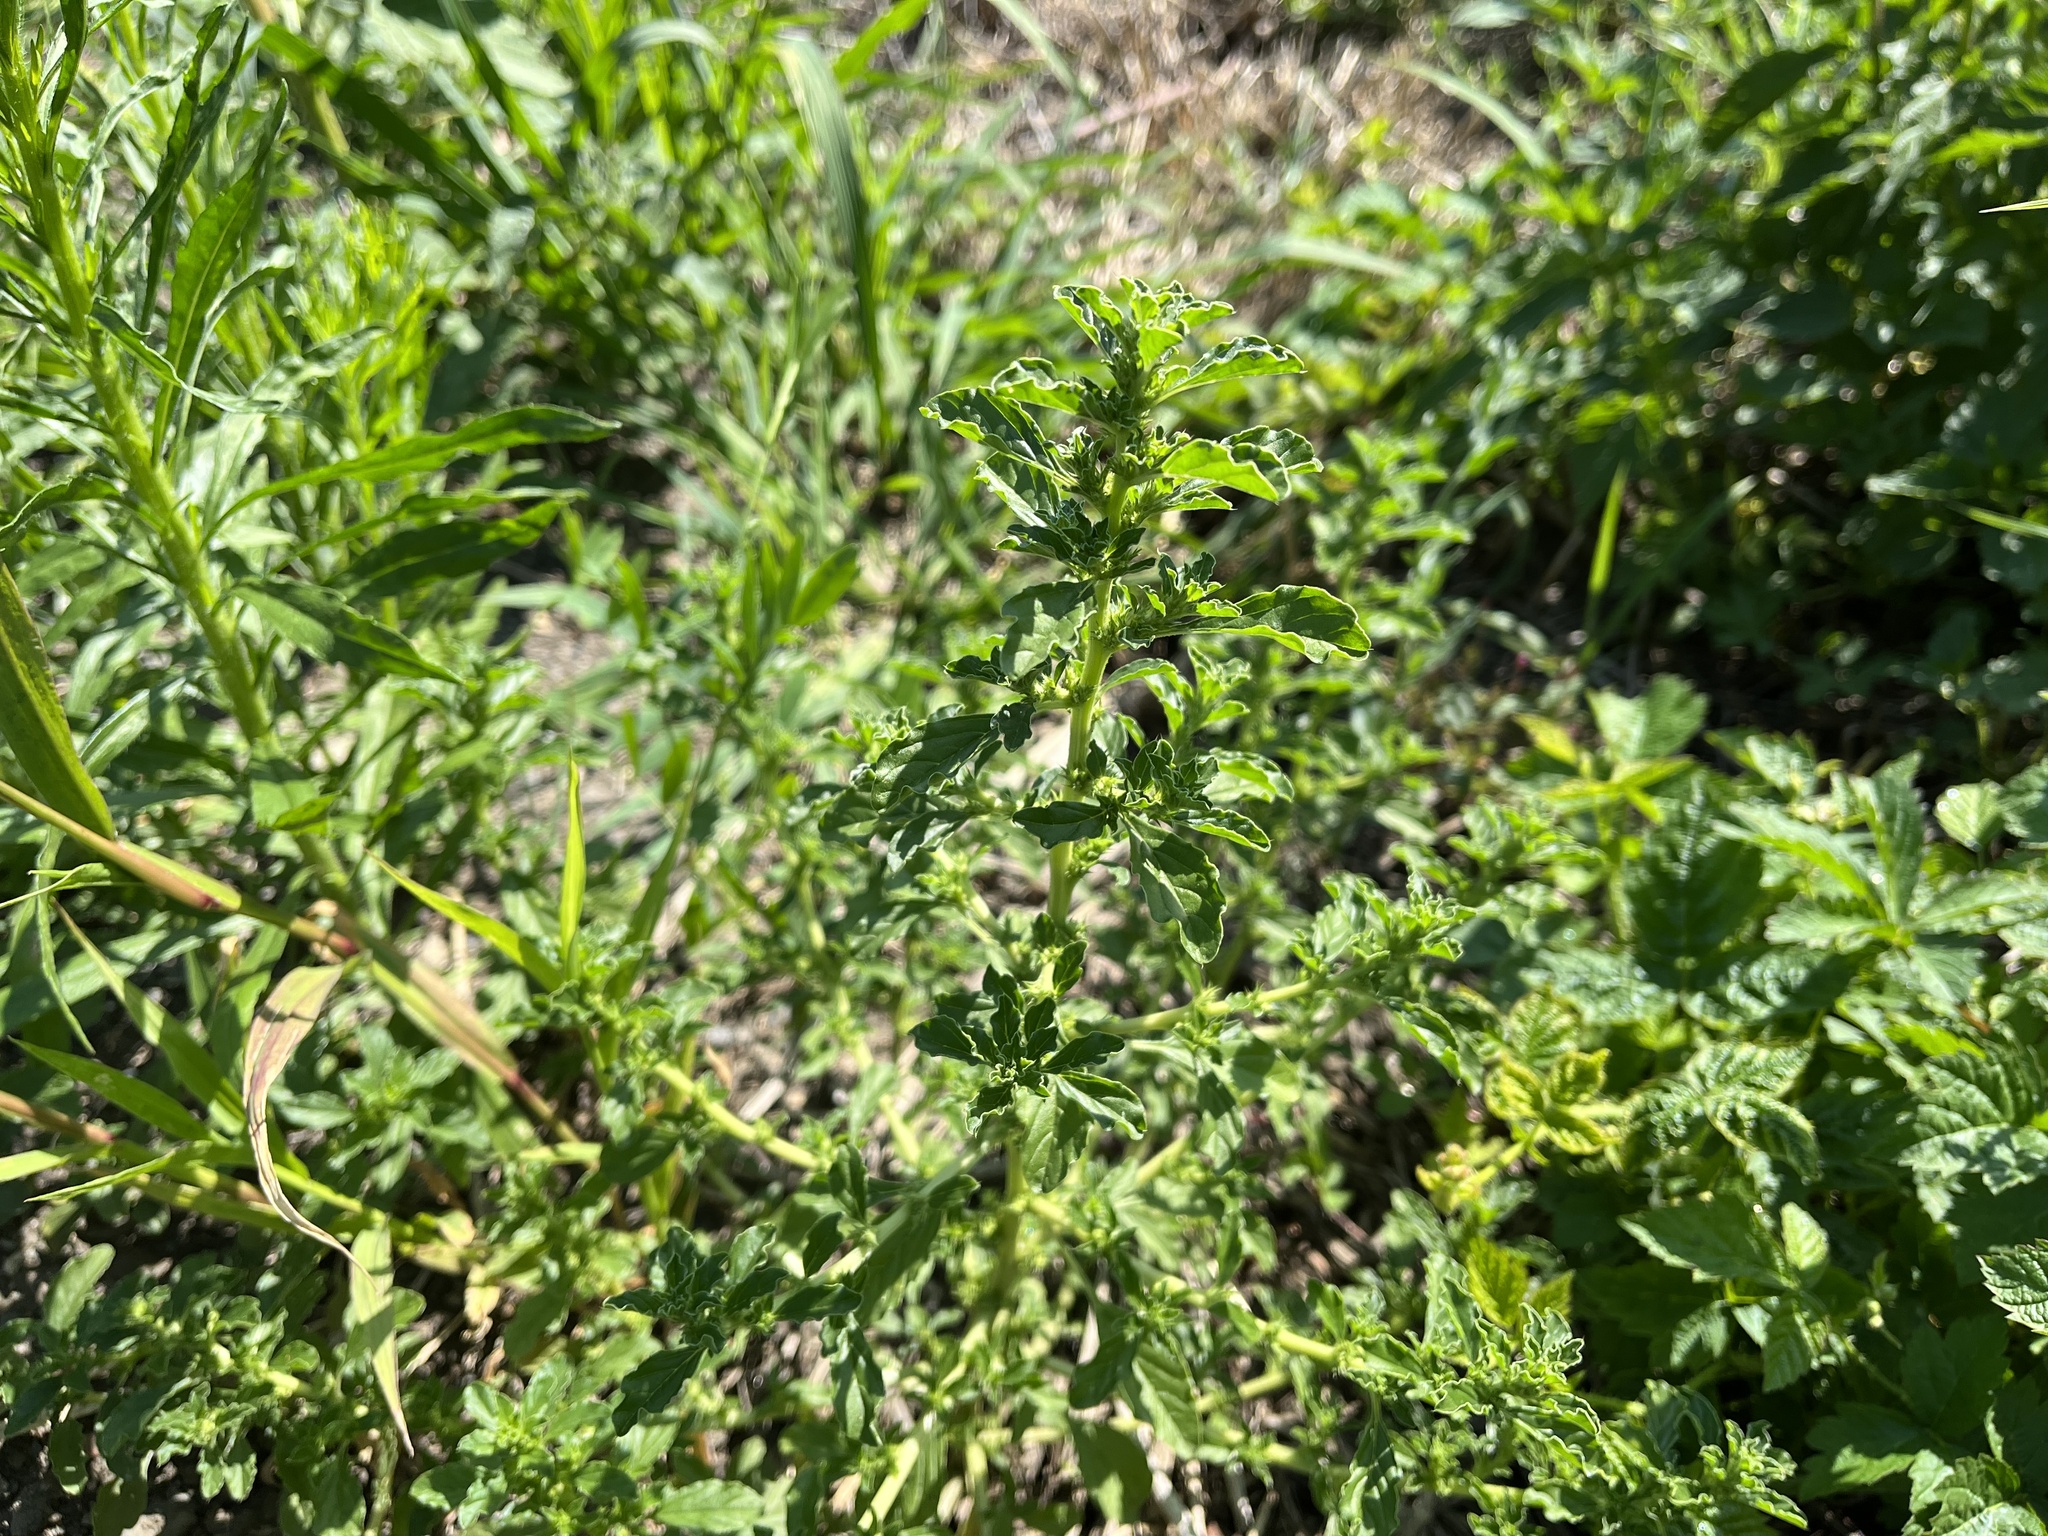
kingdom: Plantae
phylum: Tracheophyta
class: Magnoliopsida
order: Caryophyllales
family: Amaranthaceae
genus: Amaranthus
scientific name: Amaranthus albus
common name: White pigweed
